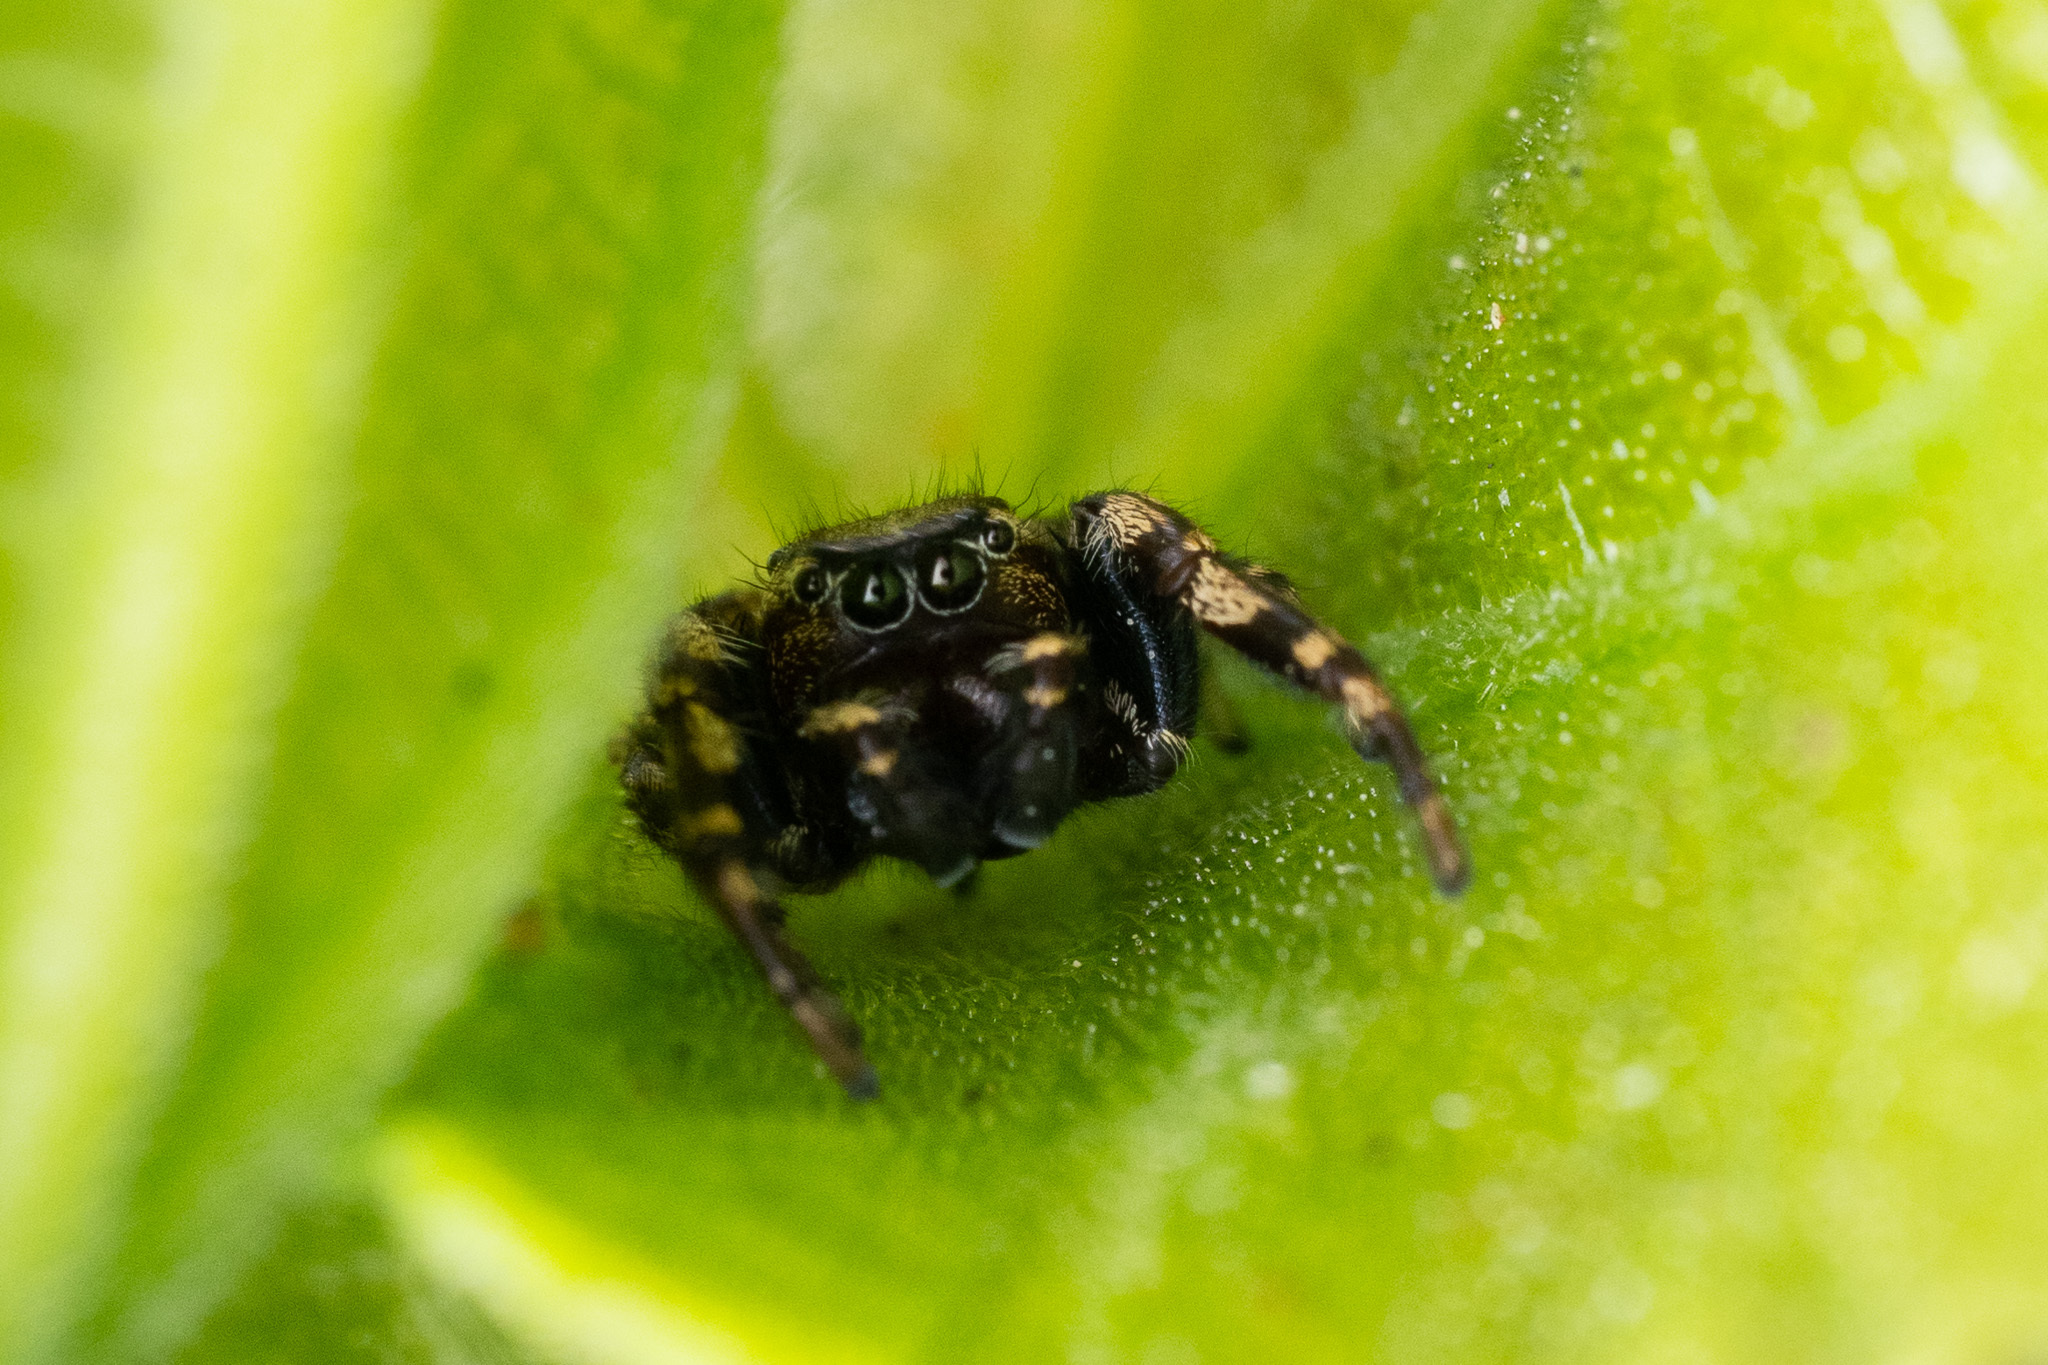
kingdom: Animalia
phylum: Arthropoda
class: Arachnida
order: Araneae
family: Salticidae
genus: Pelegrina
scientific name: Pelegrina aeneola
